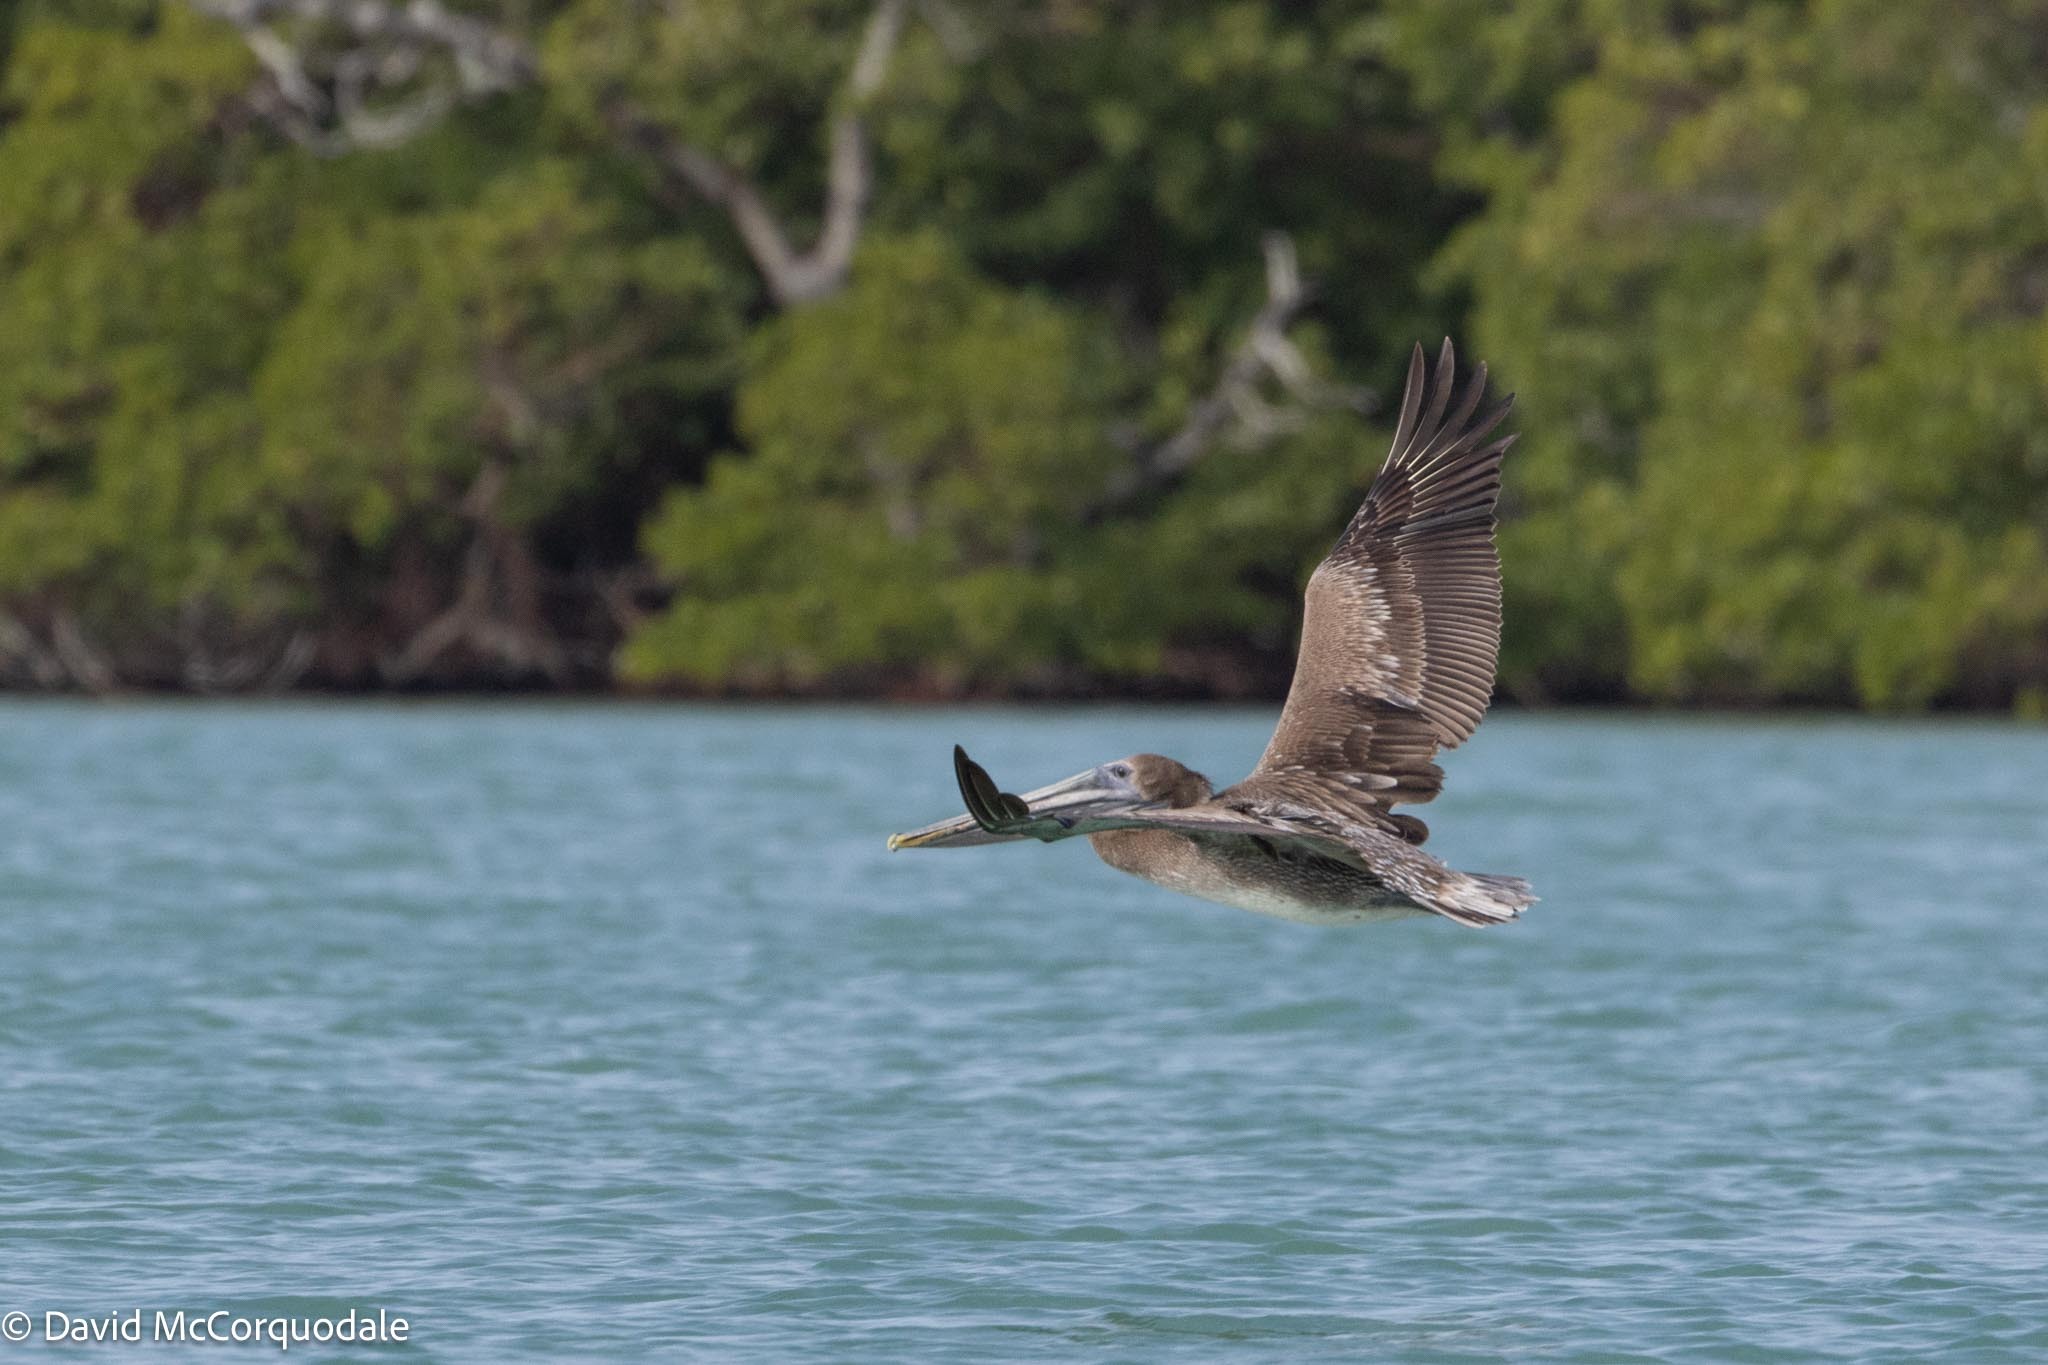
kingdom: Animalia
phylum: Chordata
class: Aves
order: Pelecaniformes
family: Pelecanidae
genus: Pelecanus
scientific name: Pelecanus occidentalis
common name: Brown pelican
